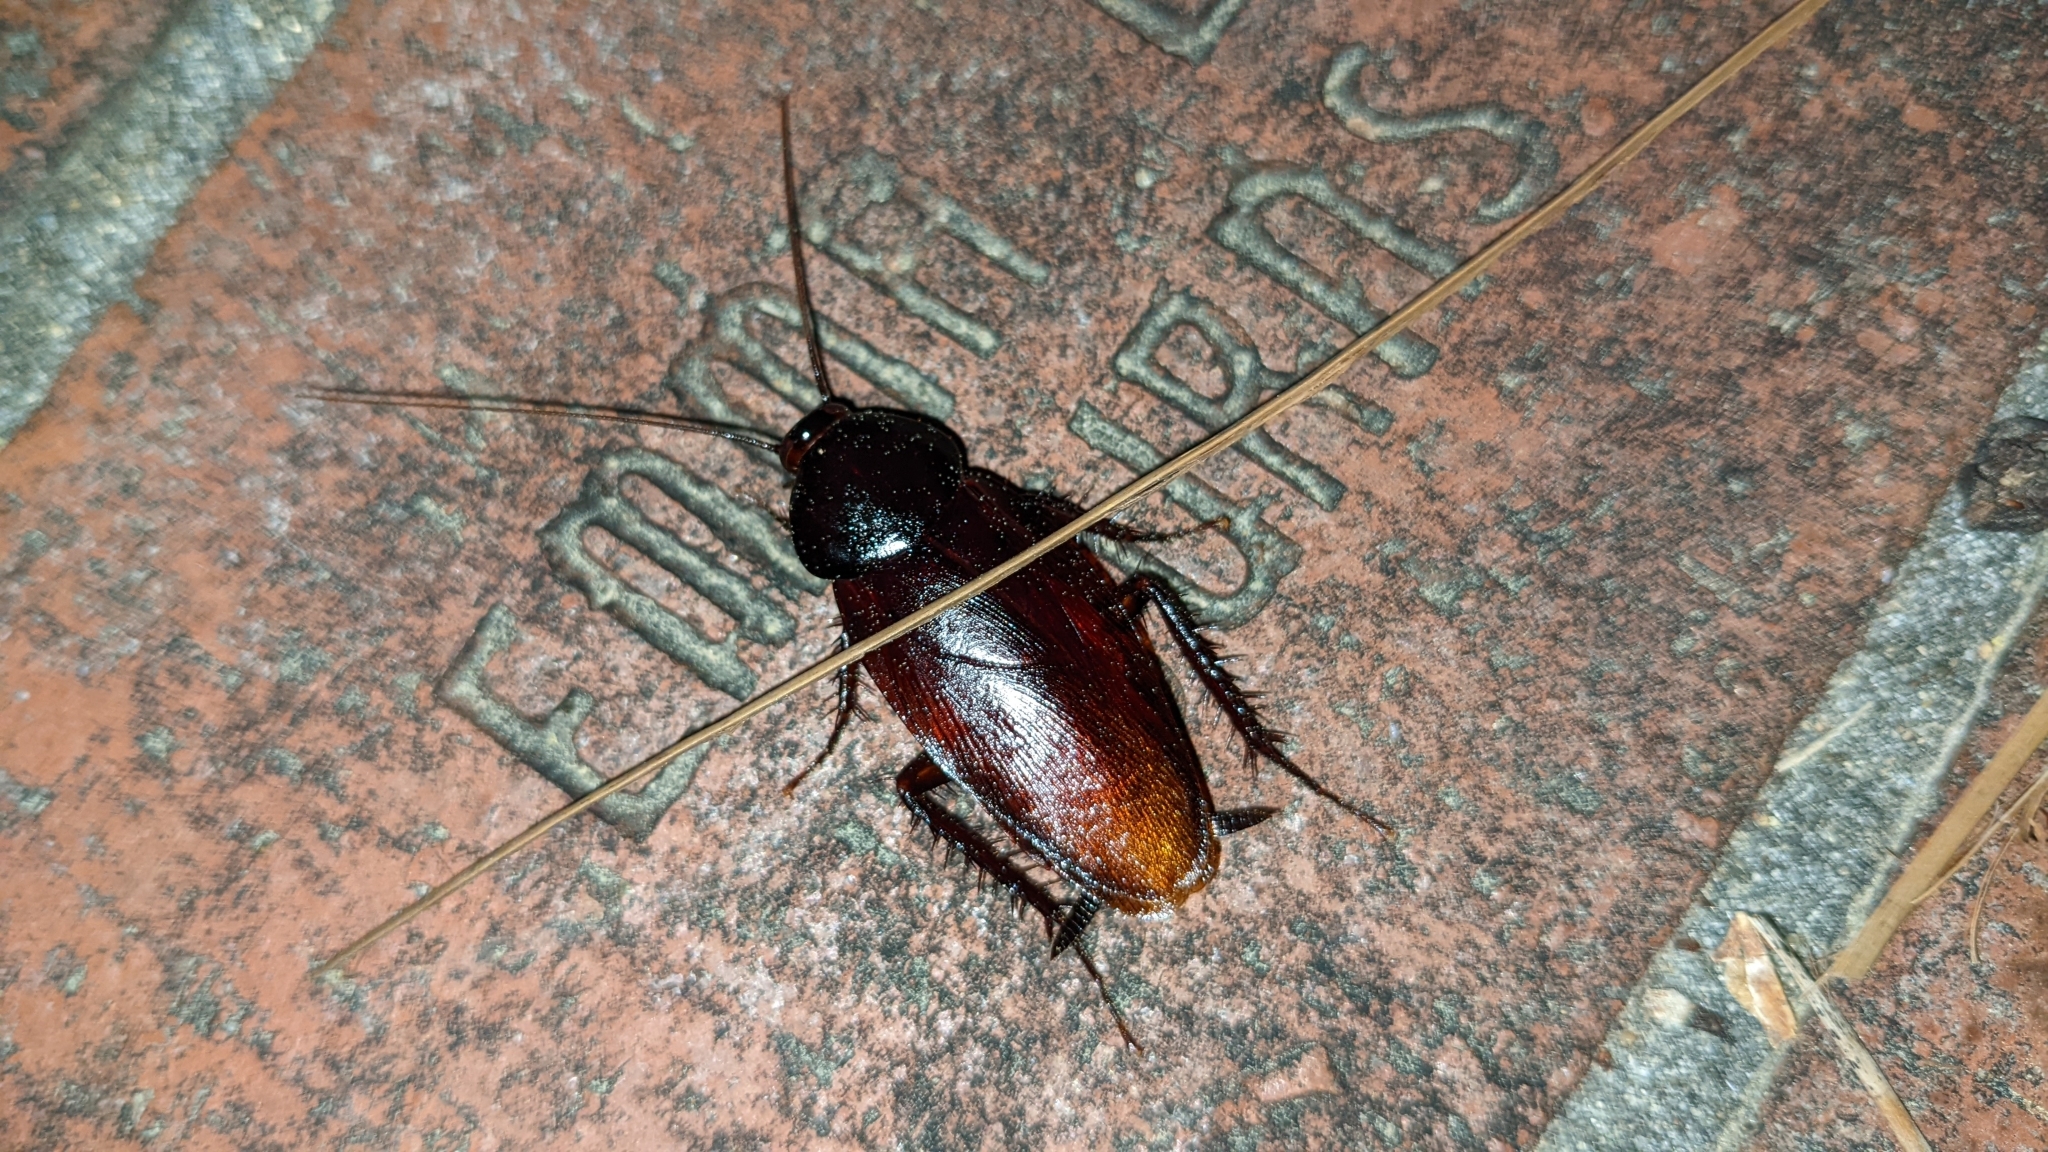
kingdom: Animalia
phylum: Arthropoda
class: Insecta
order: Blattodea
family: Blattidae
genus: Periplaneta
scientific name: Periplaneta fuliginosa
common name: Smokeybrown cockroad
